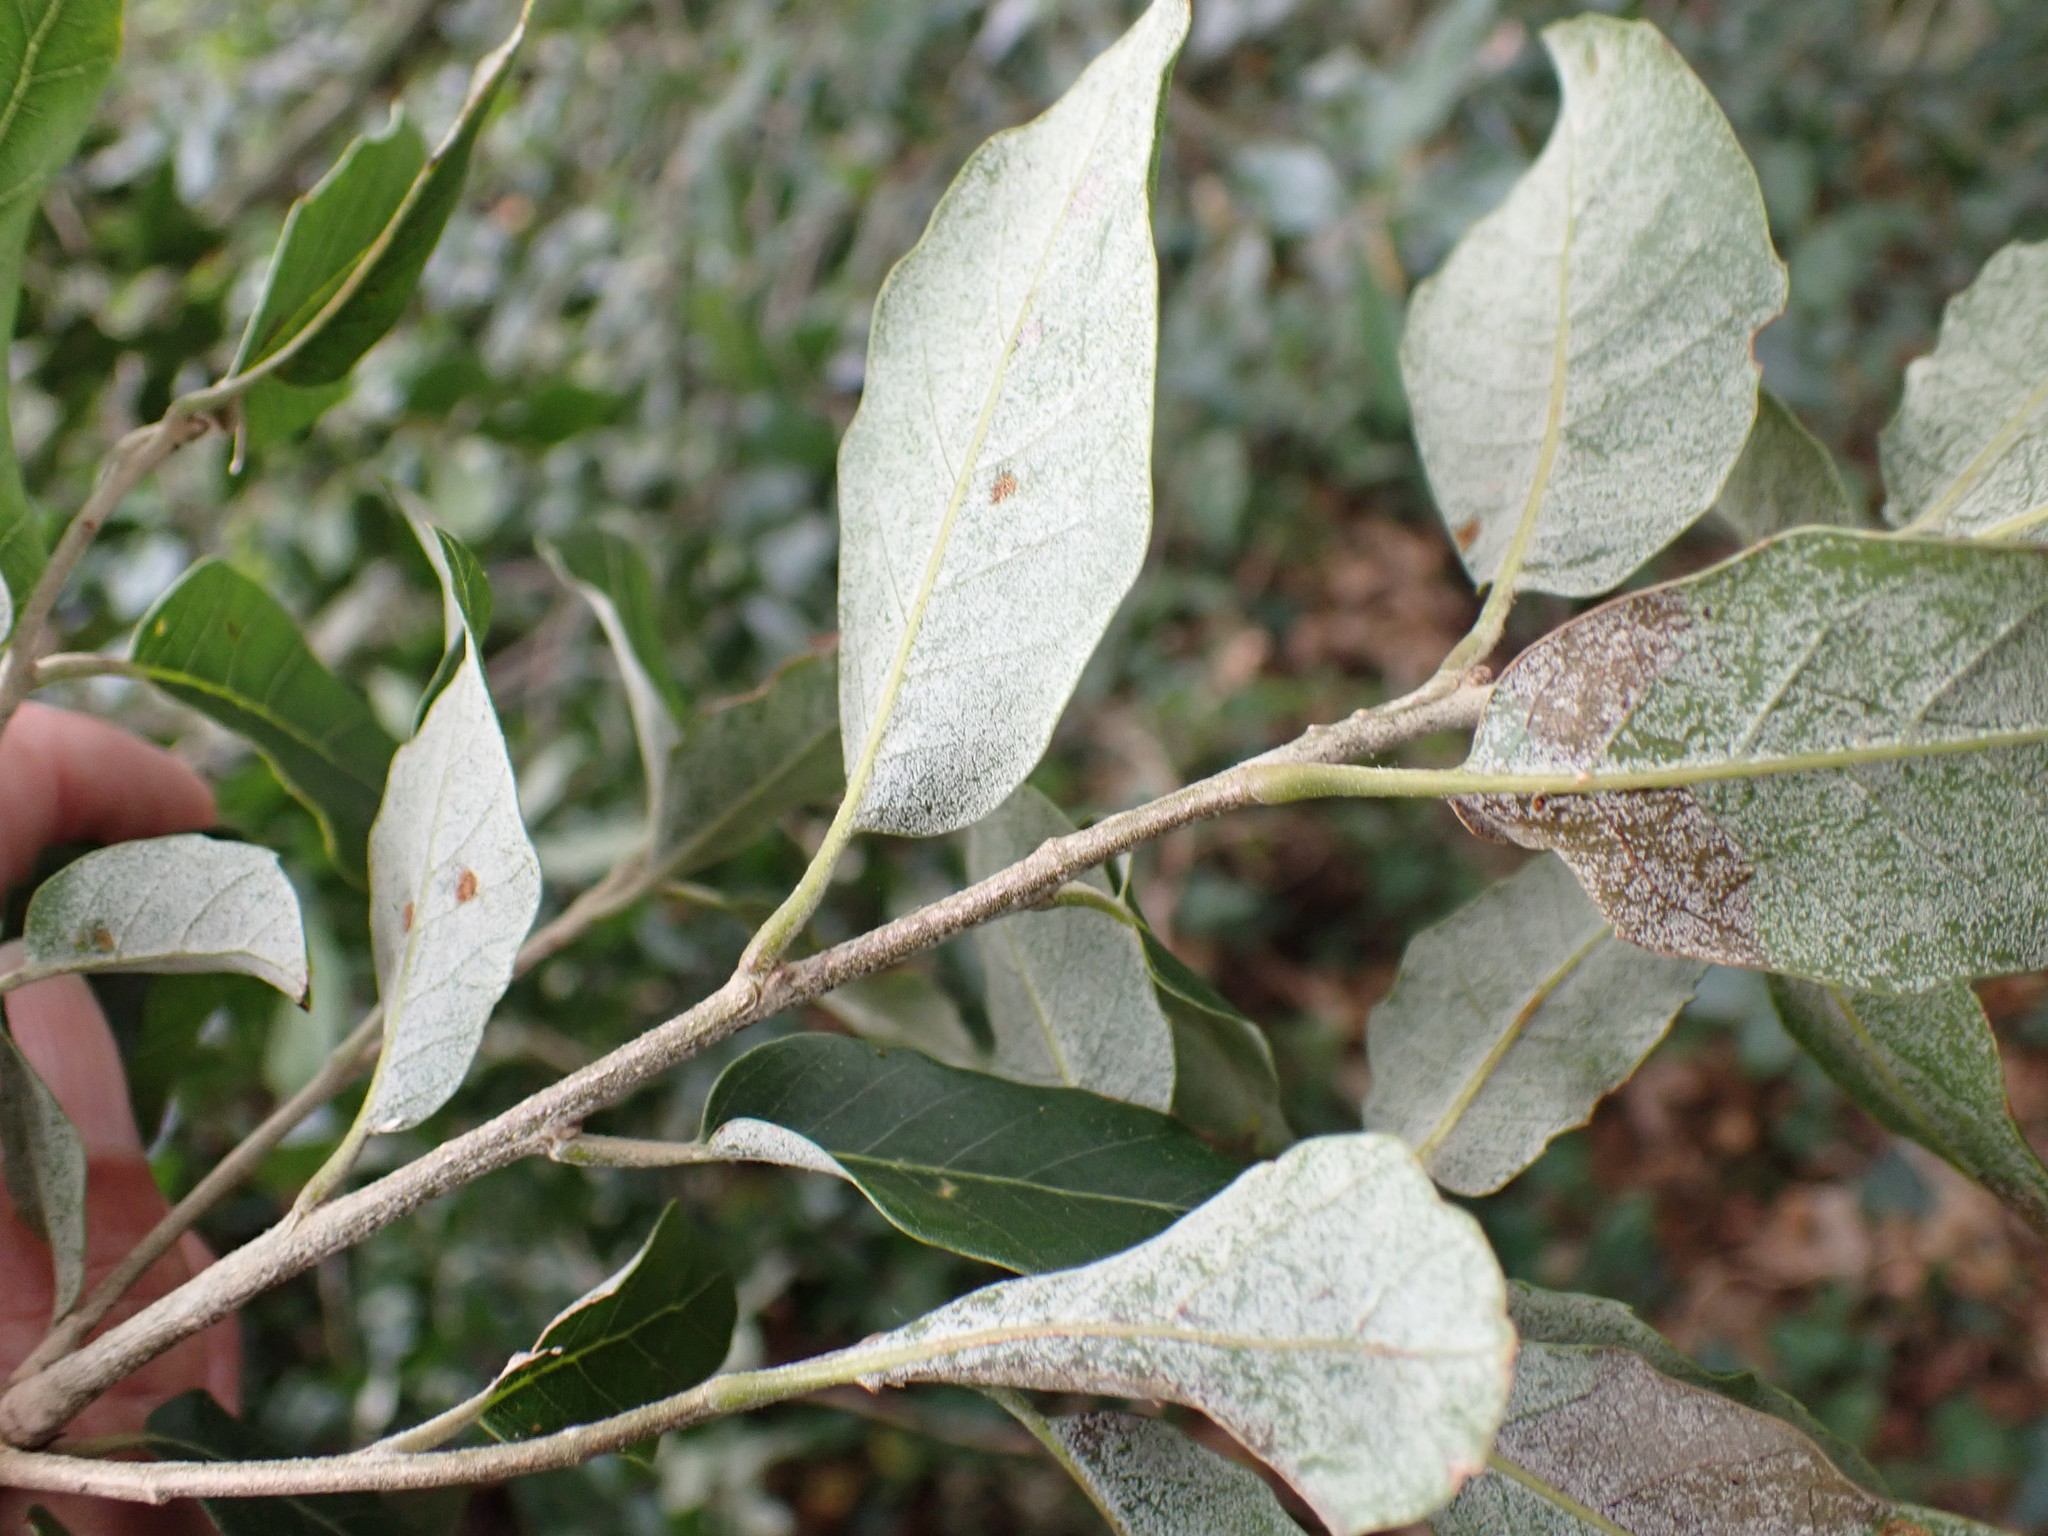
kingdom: Plantae
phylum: Tracheophyta
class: Magnoliopsida
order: Fagales
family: Fagaceae
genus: Quercus
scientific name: Quercus ilex
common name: Evergreen oak
